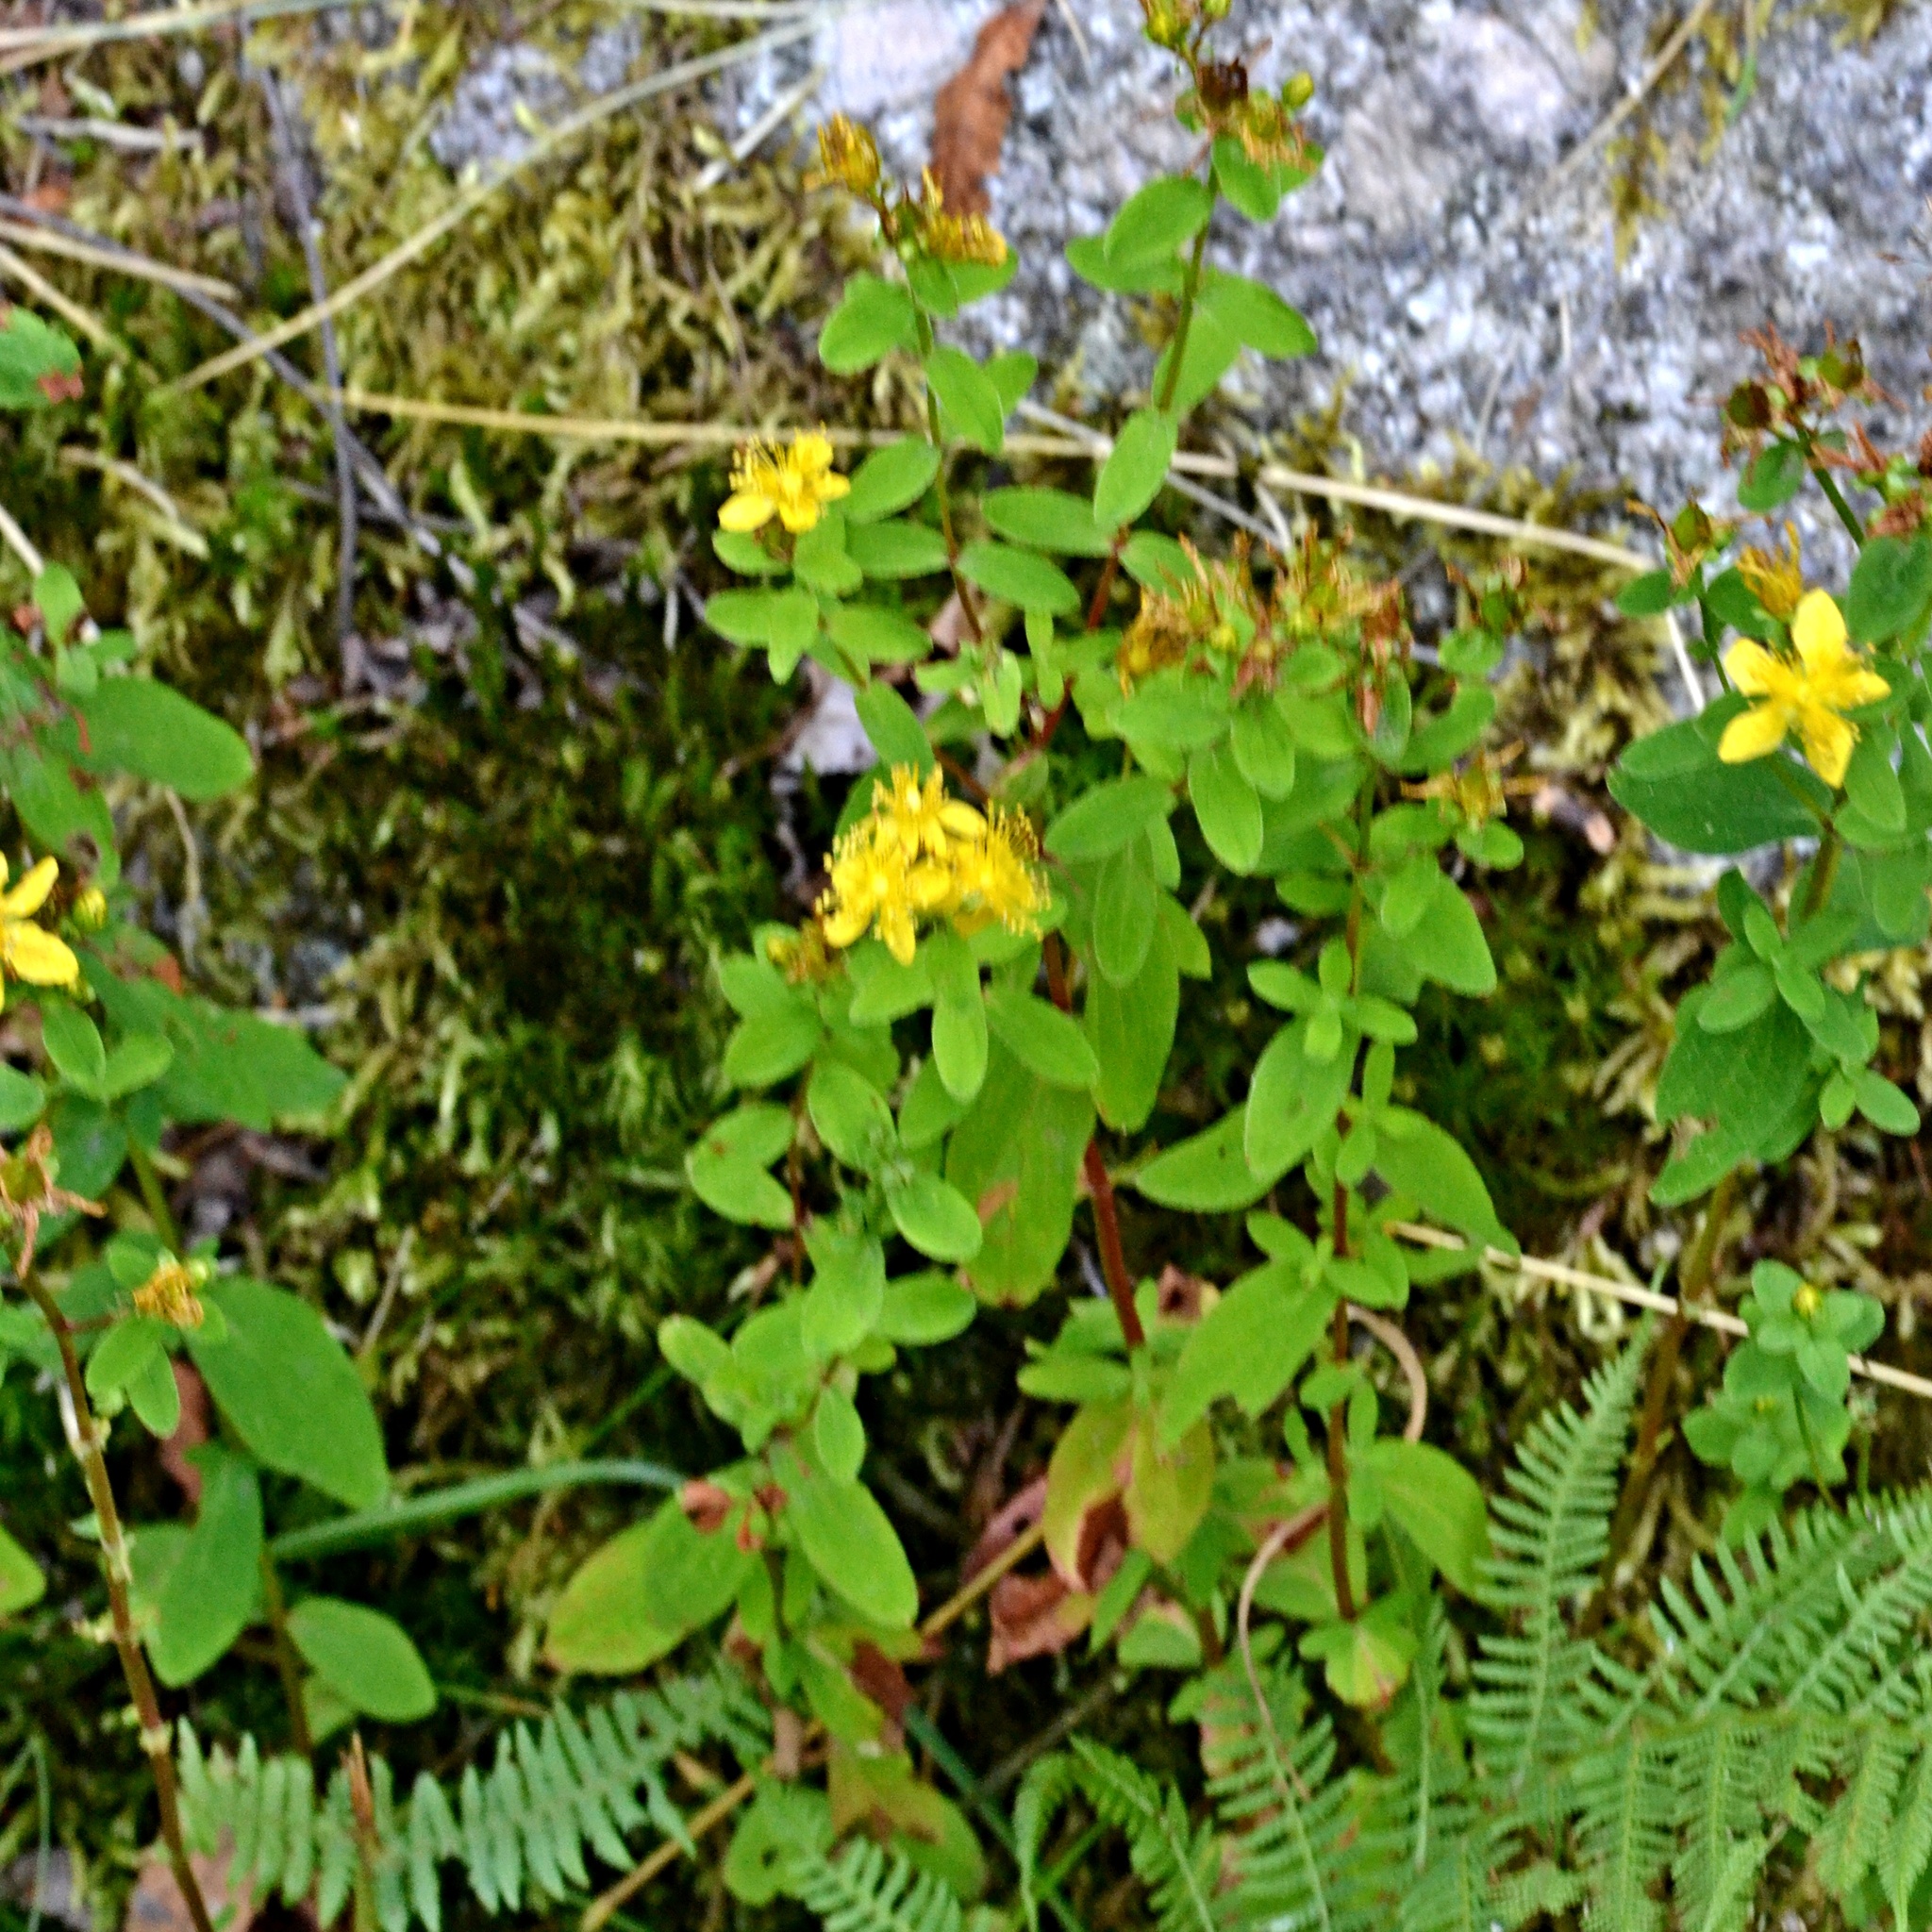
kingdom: Plantae
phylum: Tracheophyta
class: Magnoliopsida
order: Malpighiales
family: Hypericaceae
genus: Hypericum
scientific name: Hypericum maculatum
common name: Imperforate st. john's-wort
